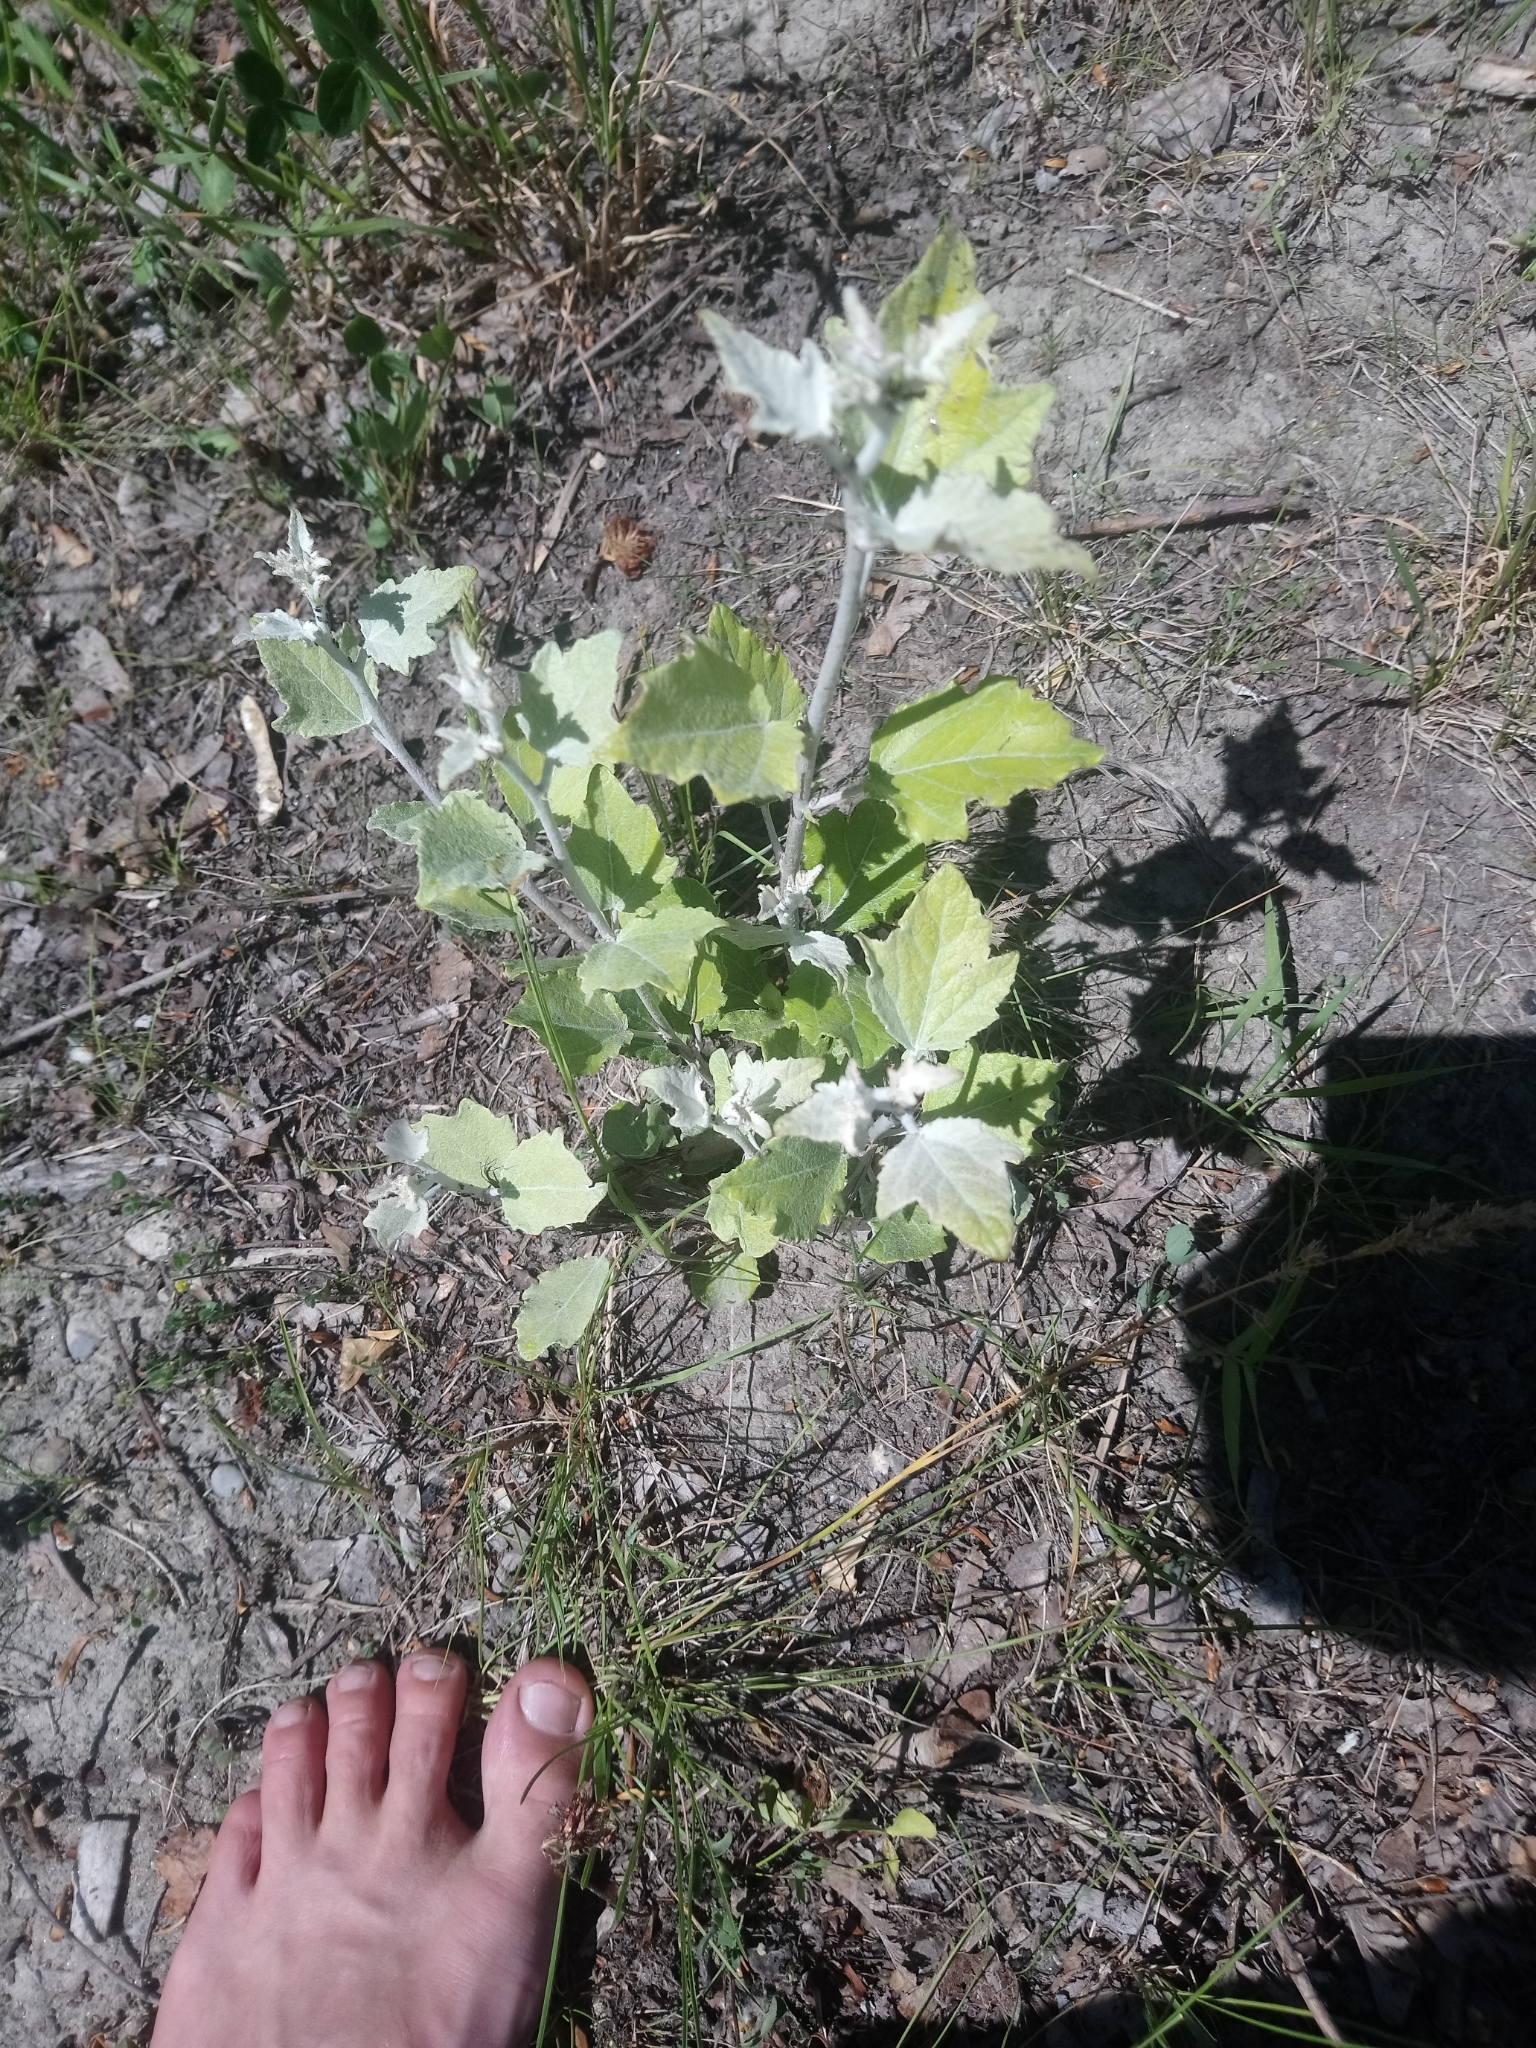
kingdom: Plantae
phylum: Tracheophyta
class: Magnoliopsida
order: Malpighiales
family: Salicaceae
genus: Populus
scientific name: Populus alba
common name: White poplar
